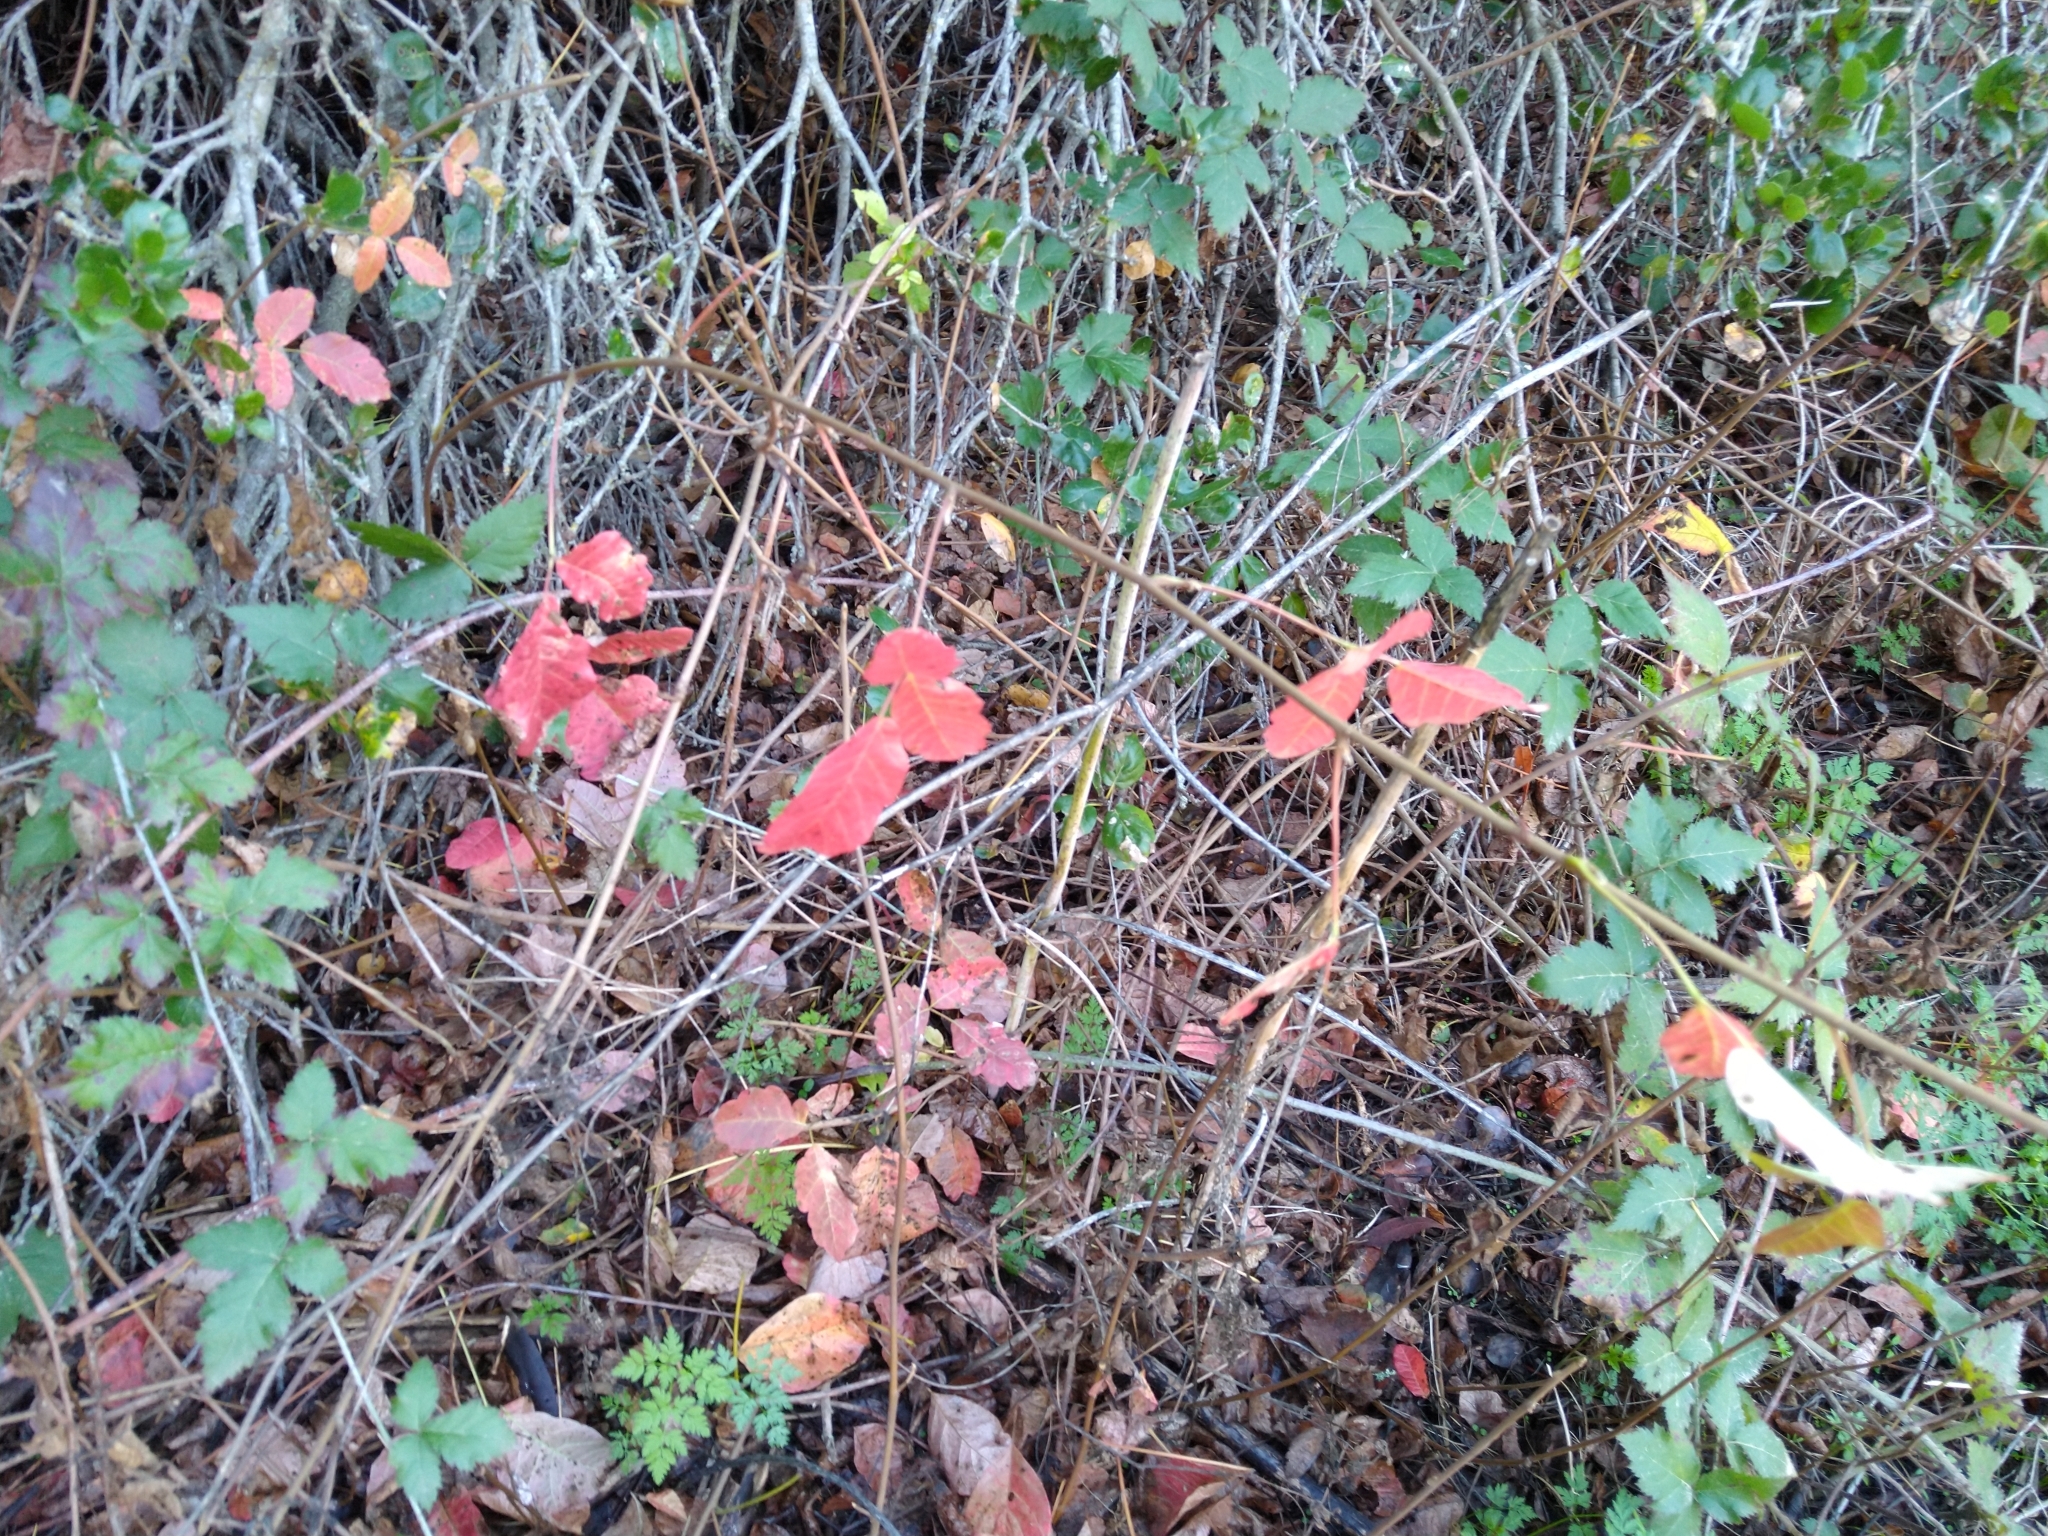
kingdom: Plantae
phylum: Tracheophyta
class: Magnoliopsida
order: Sapindales
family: Anacardiaceae
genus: Toxicodendron
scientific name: Toxicodendron diversilobum
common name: Pacific poison-oak
